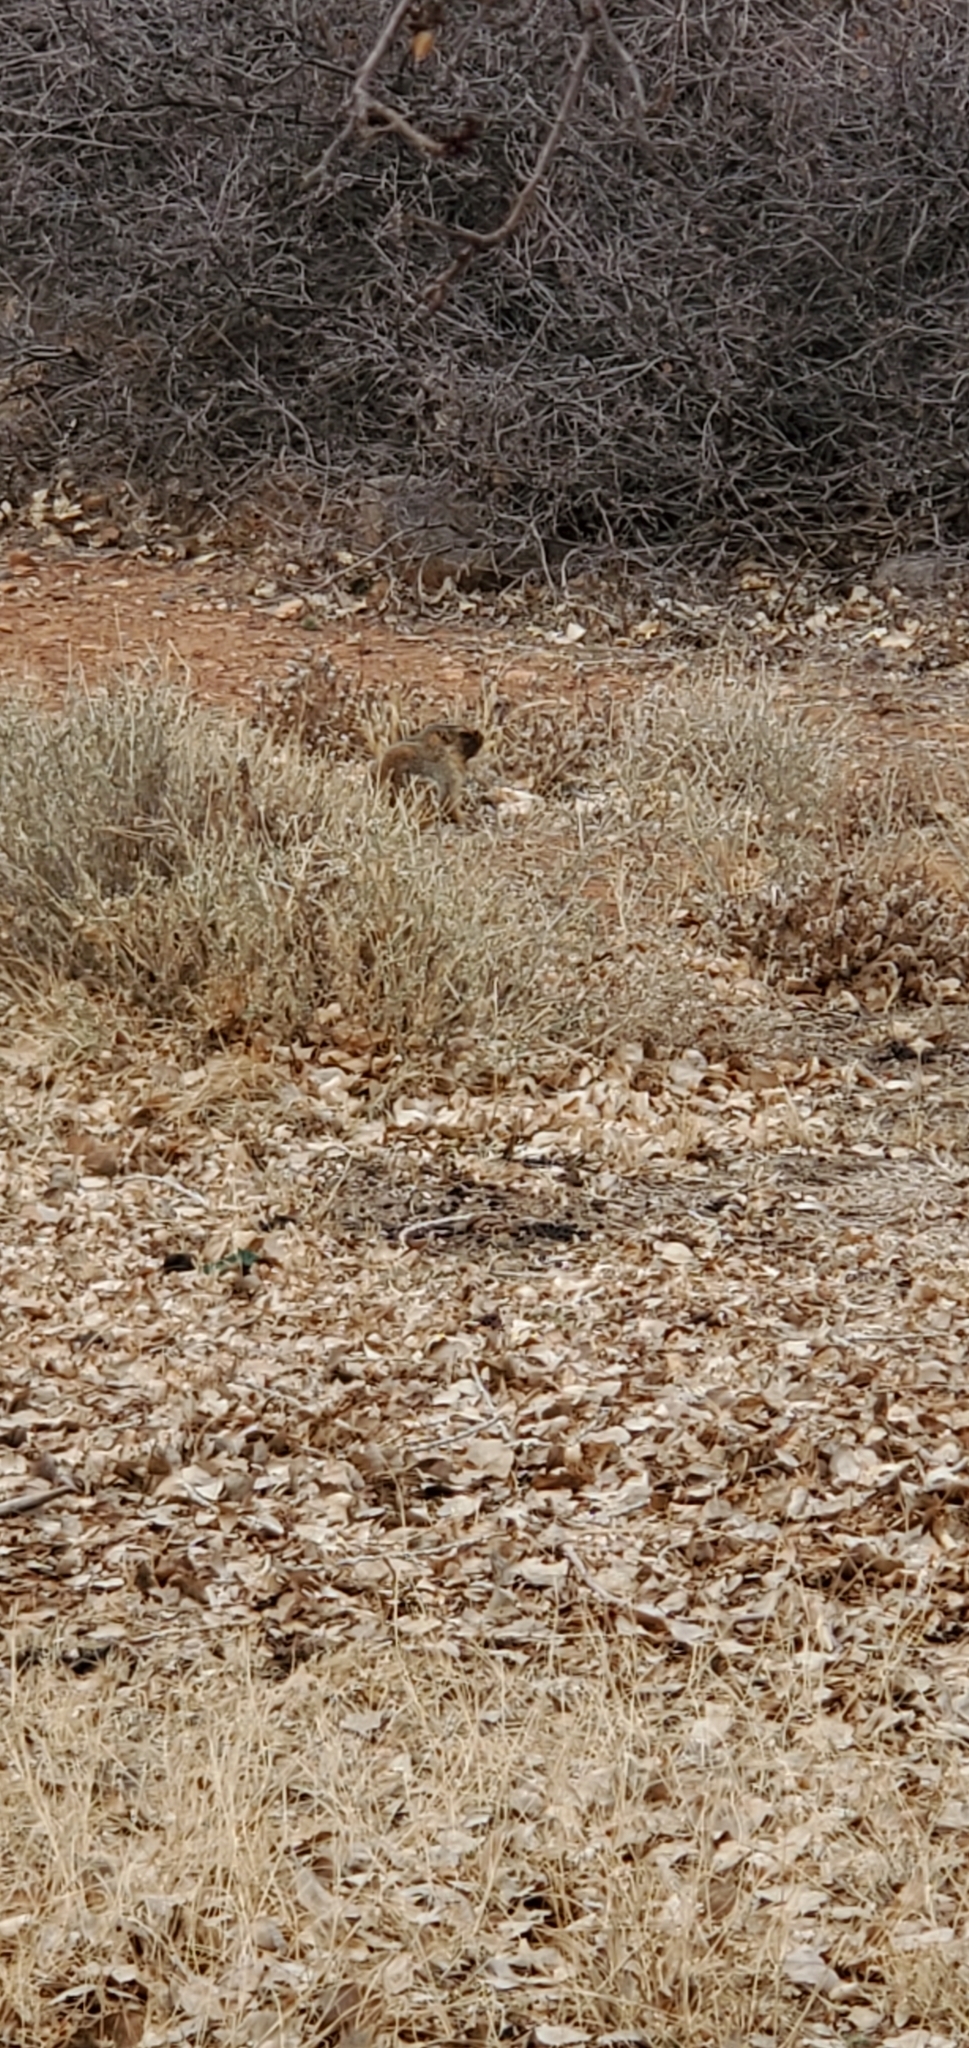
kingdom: Animalia
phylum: Chordata
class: Mammalia
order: Rodentia
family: Sciuridae
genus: Marmota
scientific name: Marmota flaviventris
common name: Yellow-bellied marmot
